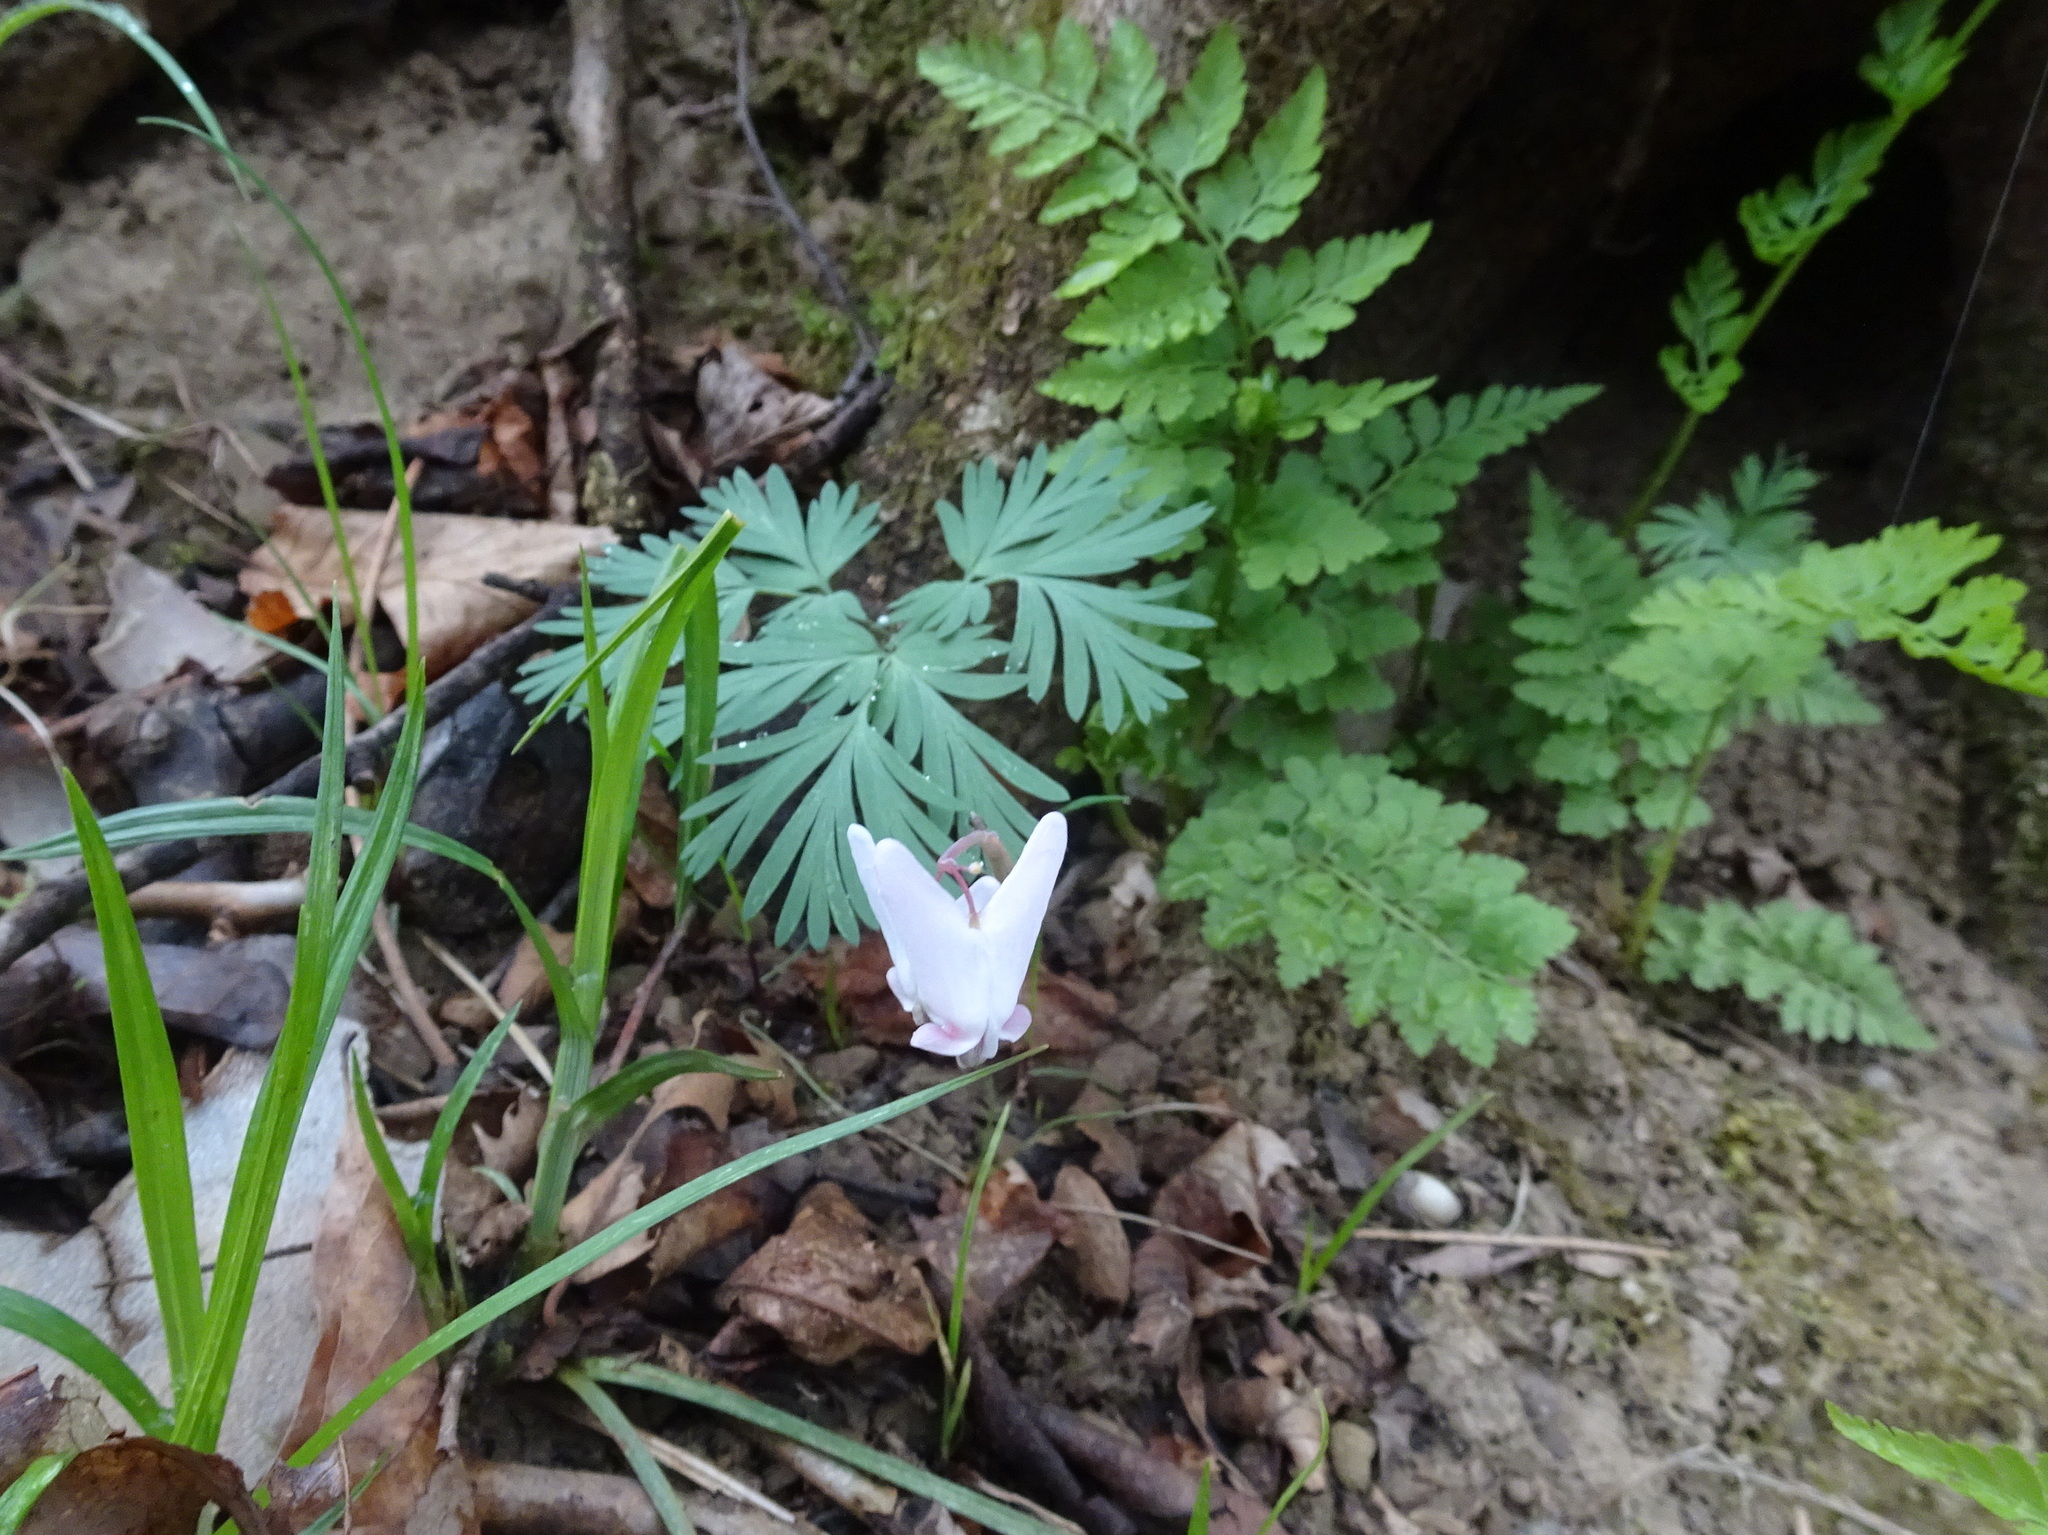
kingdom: Plantae
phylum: Tracheophyta
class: Magnoliopsida
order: Ranunculales
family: Papaveraceae
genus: Dicentra
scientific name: Dicentra cucullaria
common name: Dutchman's breeches
